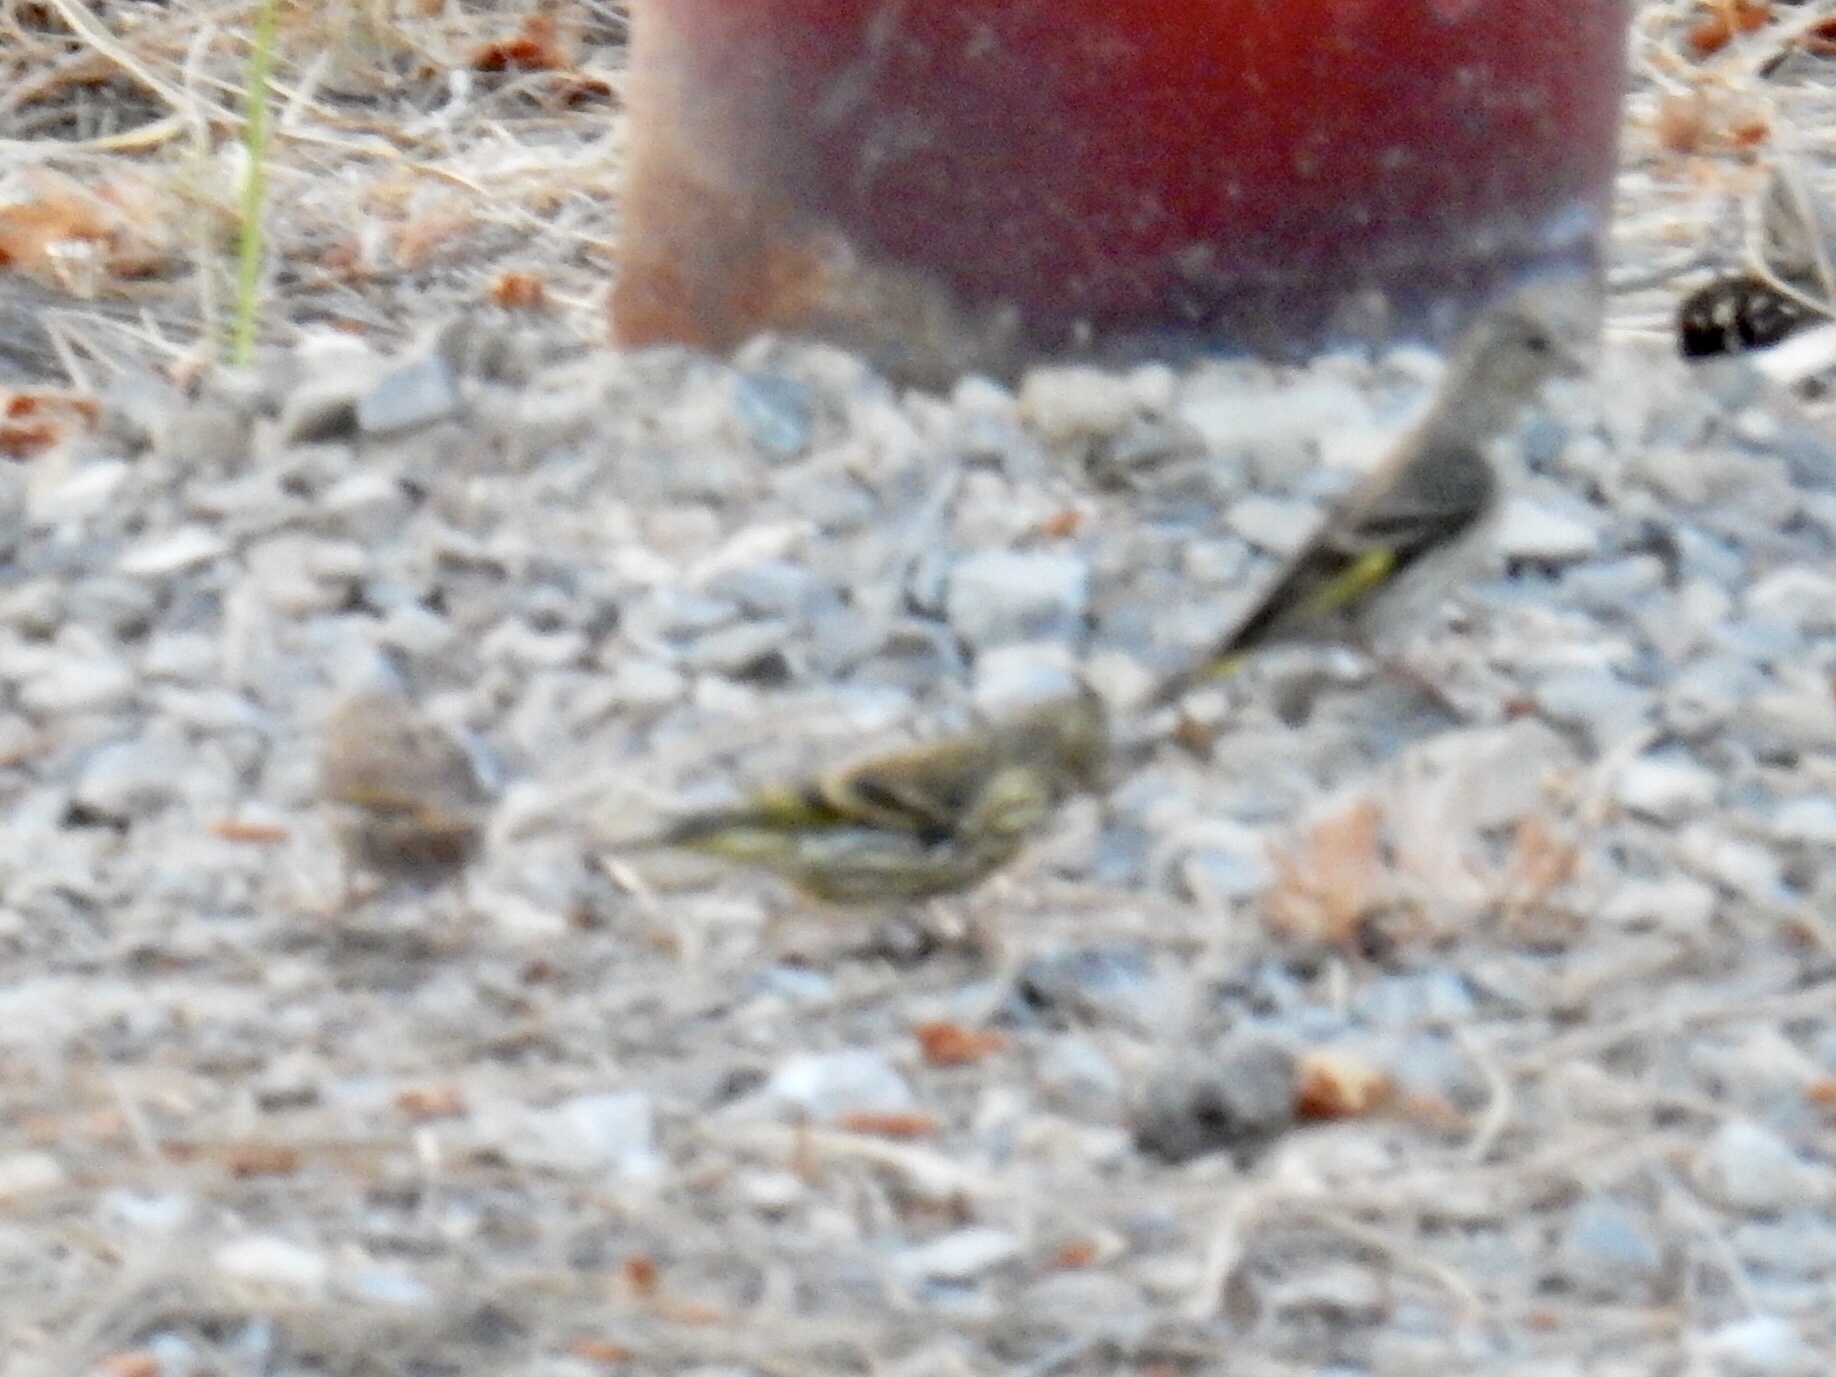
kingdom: Animalia
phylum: Chordata
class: Aves
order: Passeriformes
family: Fringillidae
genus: Spinus
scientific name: Spinus pinus
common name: Pine siskin
